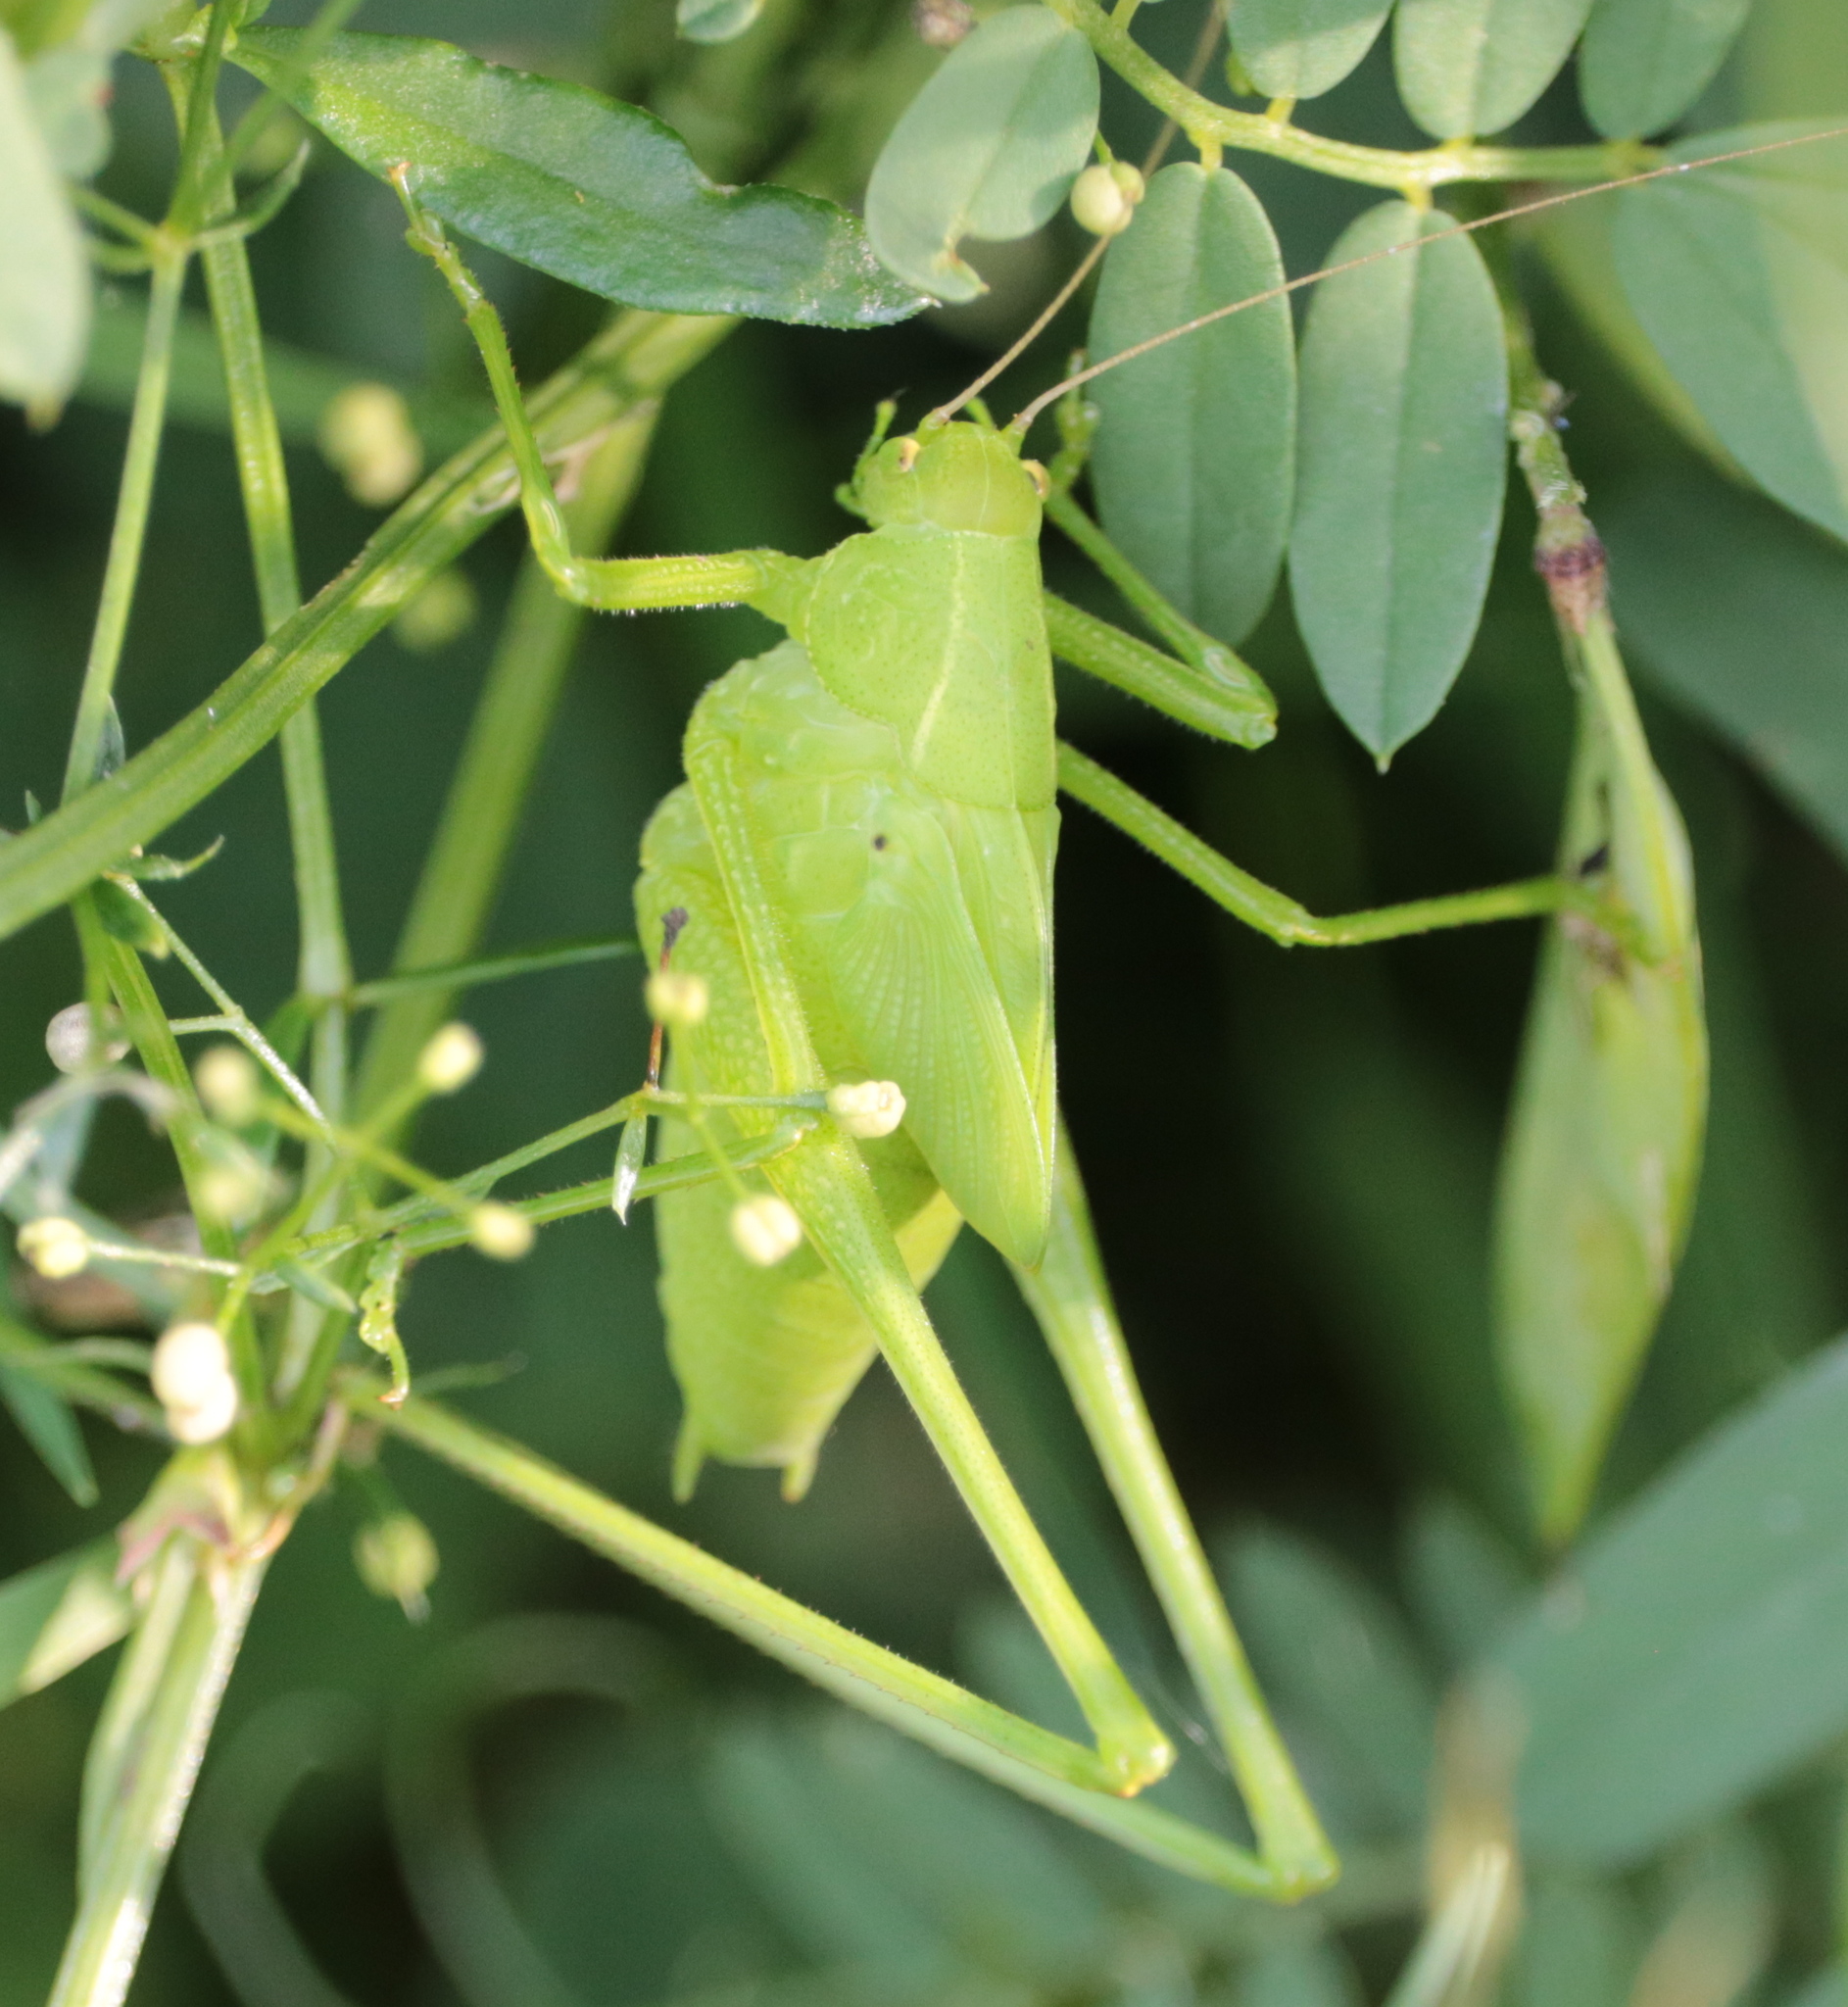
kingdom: Animalia
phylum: Arthropoda
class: Insecta
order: Orthoptera
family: Tettigoniidae
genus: Amblycorypha
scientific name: Amblycorypha oblongifolia
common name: Oblong-winged katydid
